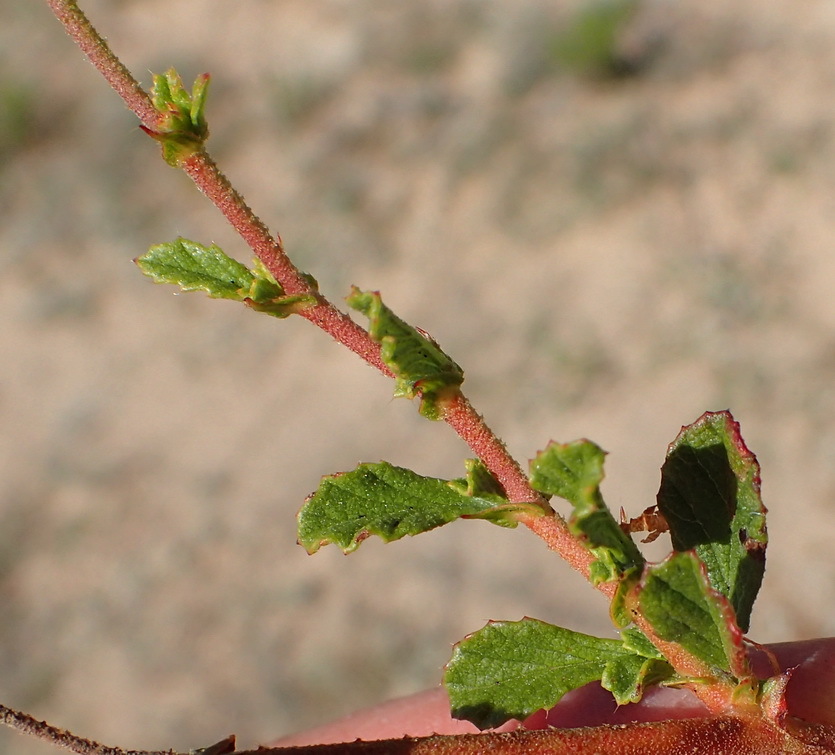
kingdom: Plantae
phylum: Tracheophyta
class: Magnoliopsida
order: Malvales
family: Malvaceae
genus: Hermannia
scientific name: Hermannia alnifolia
